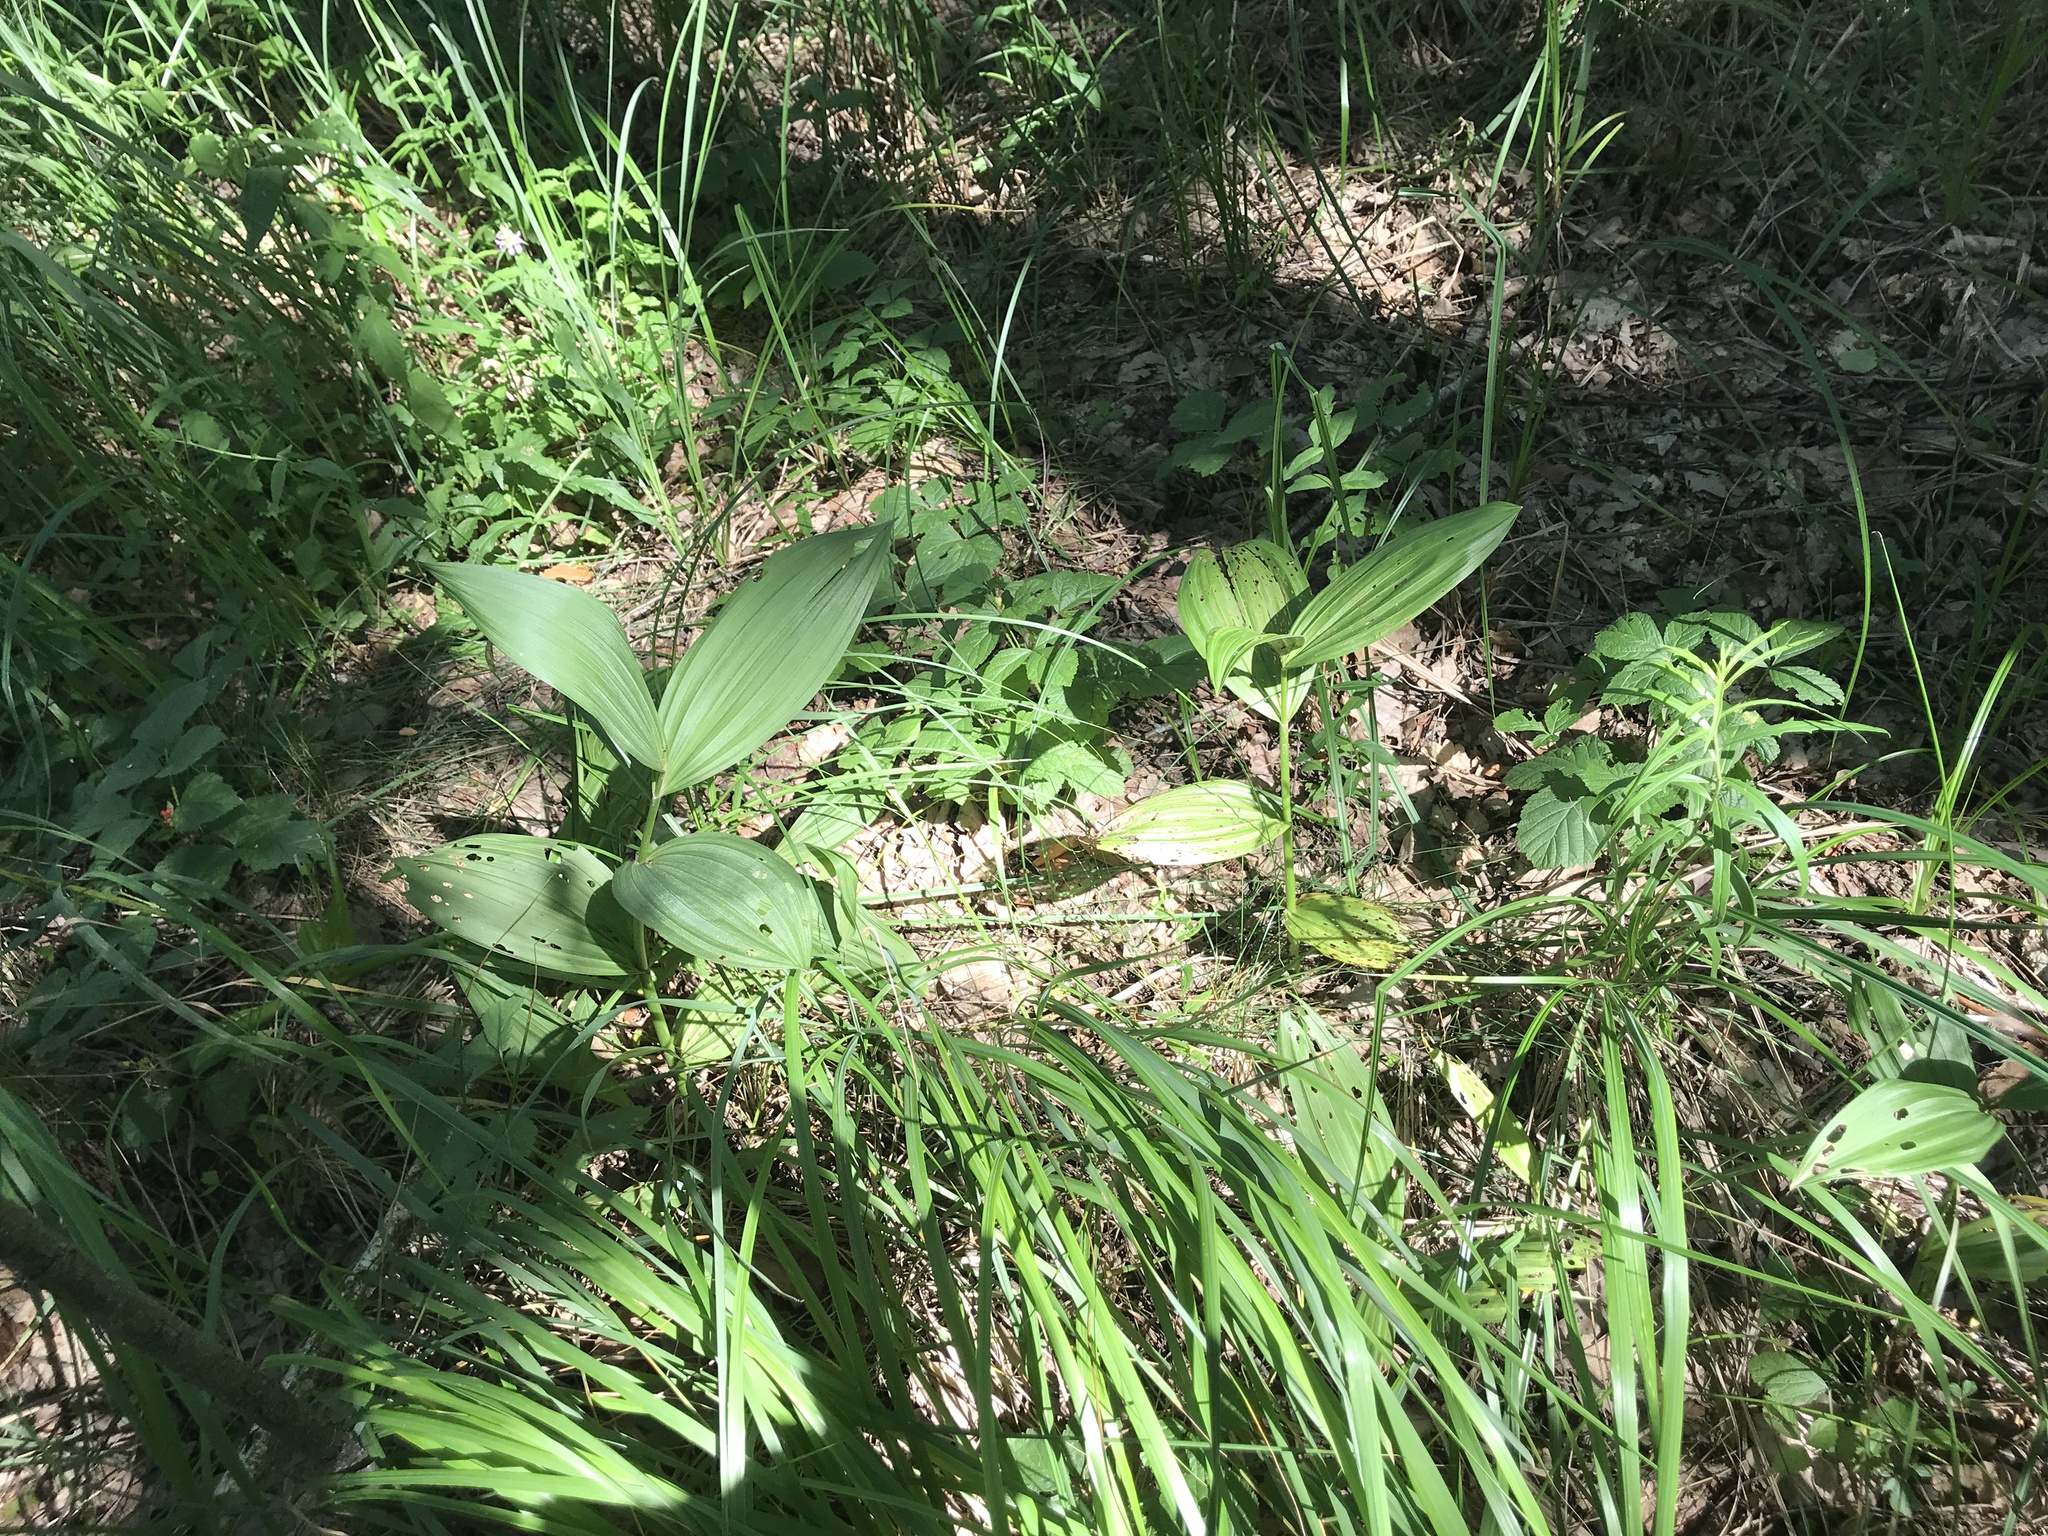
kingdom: Plantae
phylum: Tracheophyta
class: Liliopsida
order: Liliales
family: Melanthiaceae
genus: Veratrum
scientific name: Veratrum lobelianum
